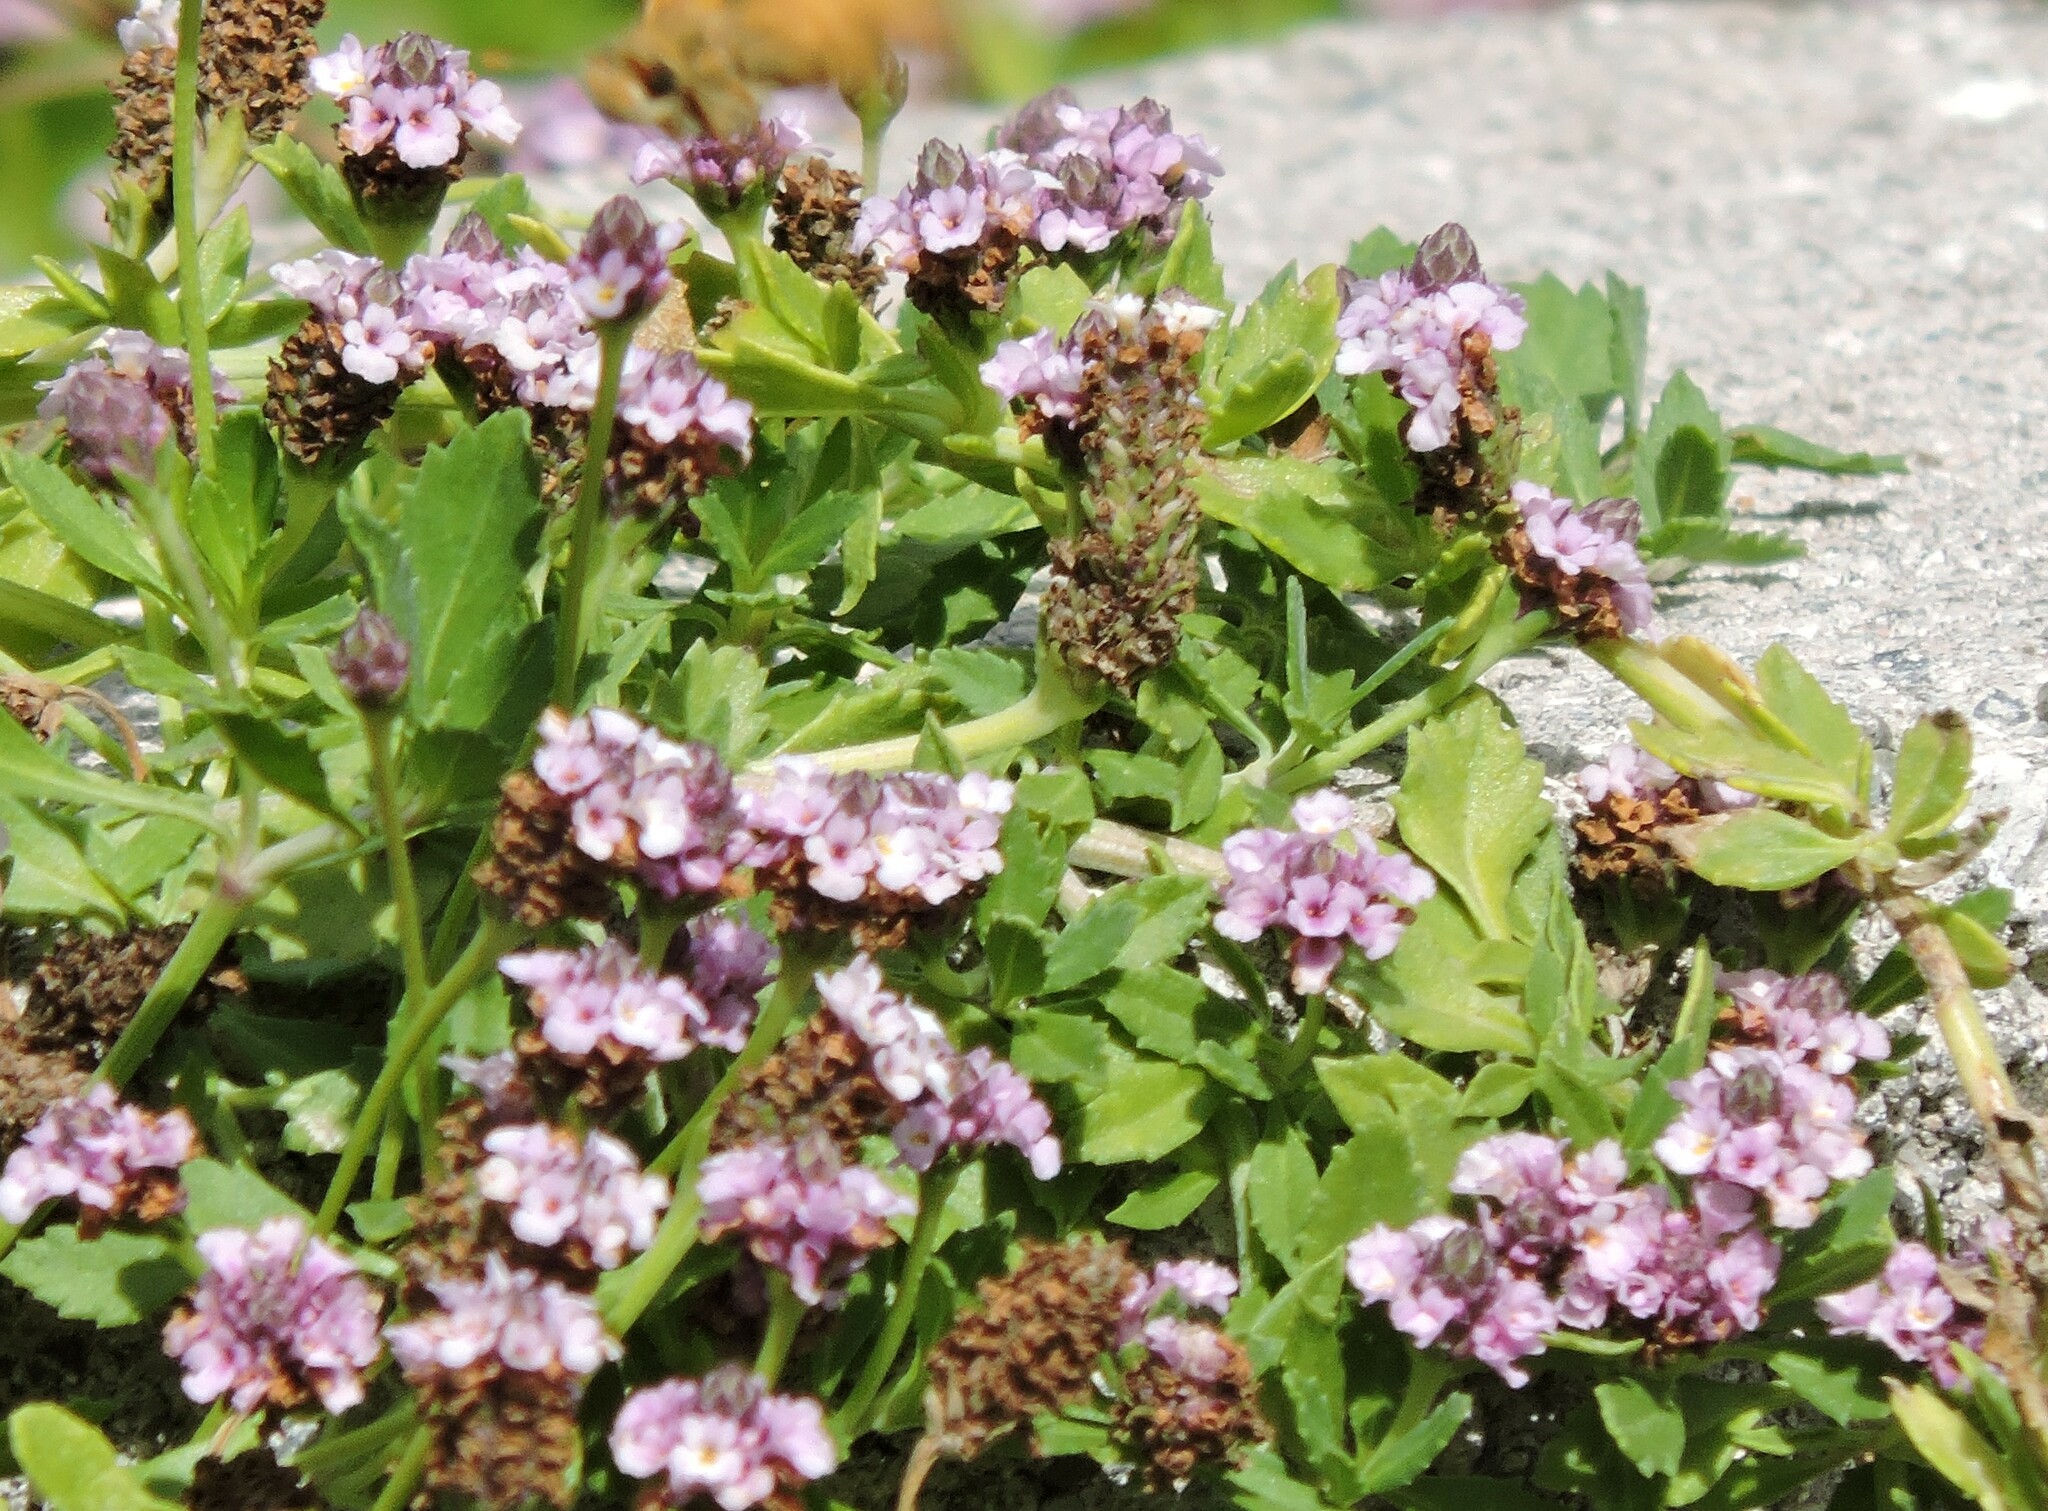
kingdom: Plantae
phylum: Tracheophyta
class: Magnoliopsida
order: Lamiales
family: Verbenaceae
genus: Phyla
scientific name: Phyla nodiflora
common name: Frogfruit
